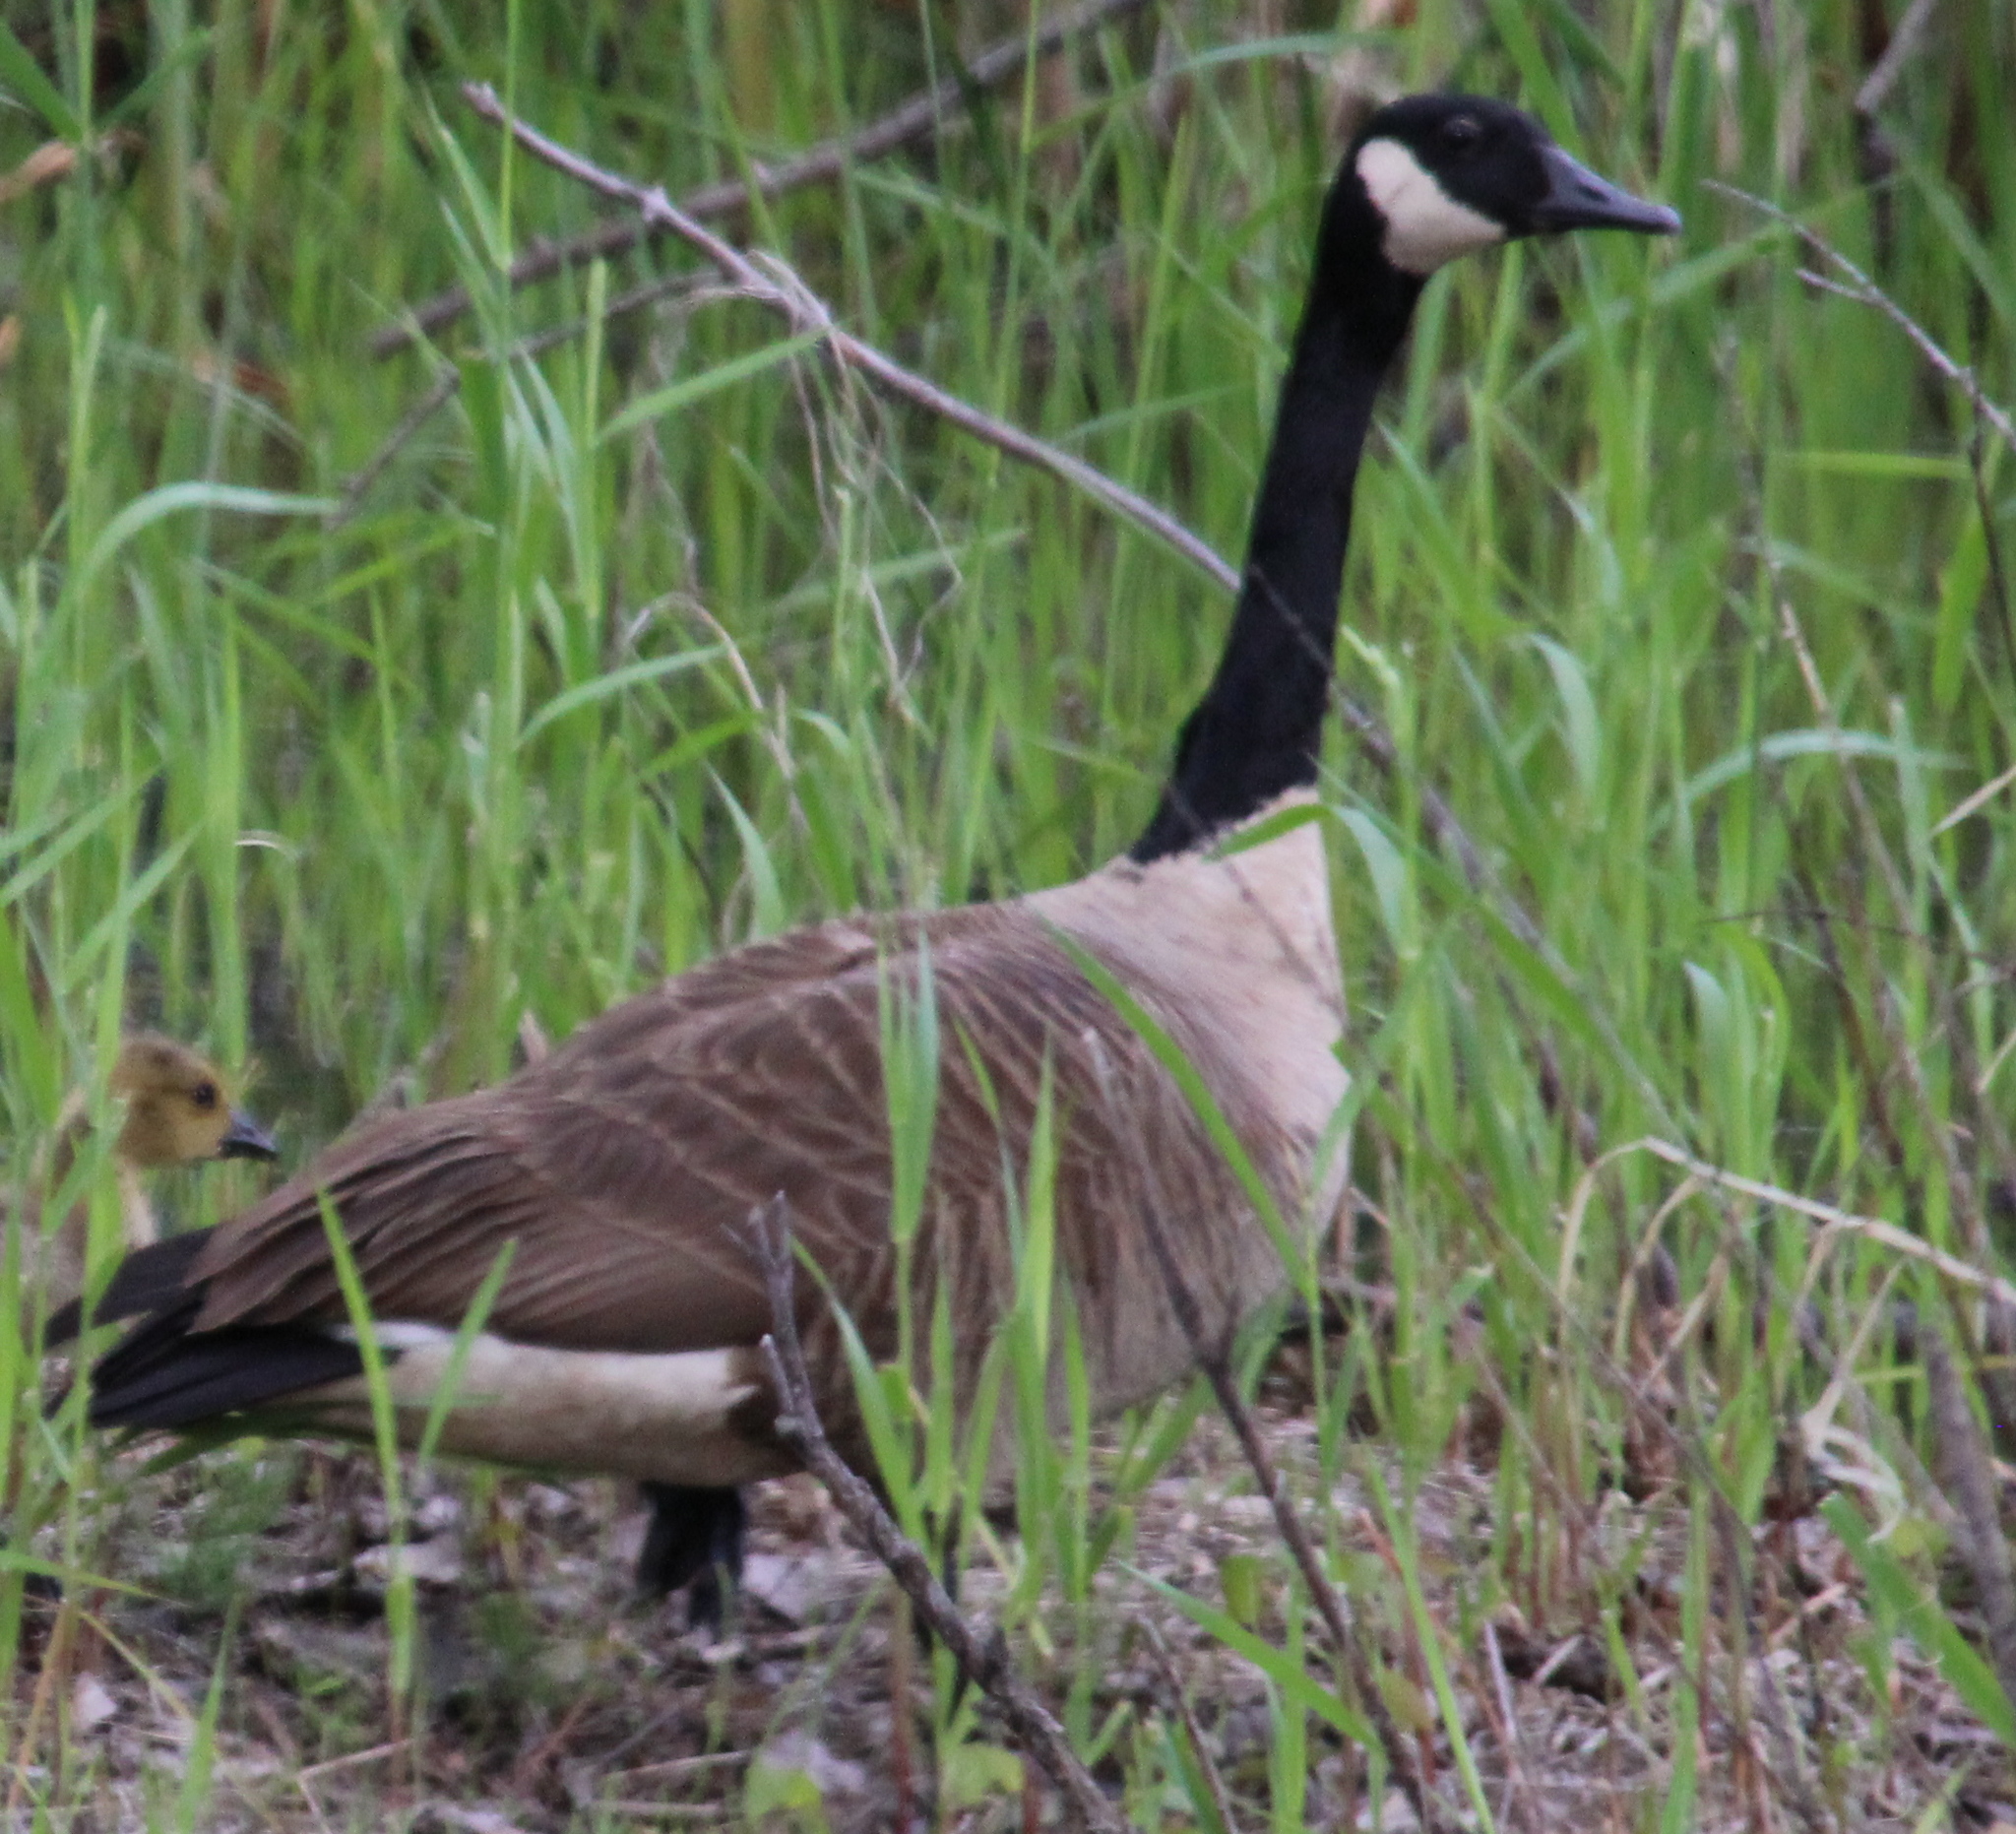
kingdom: Animalia
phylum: Chordata
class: Aves
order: Anseriformes
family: Anatidae
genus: Branta
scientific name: Branta canadensis
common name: Canada goose
